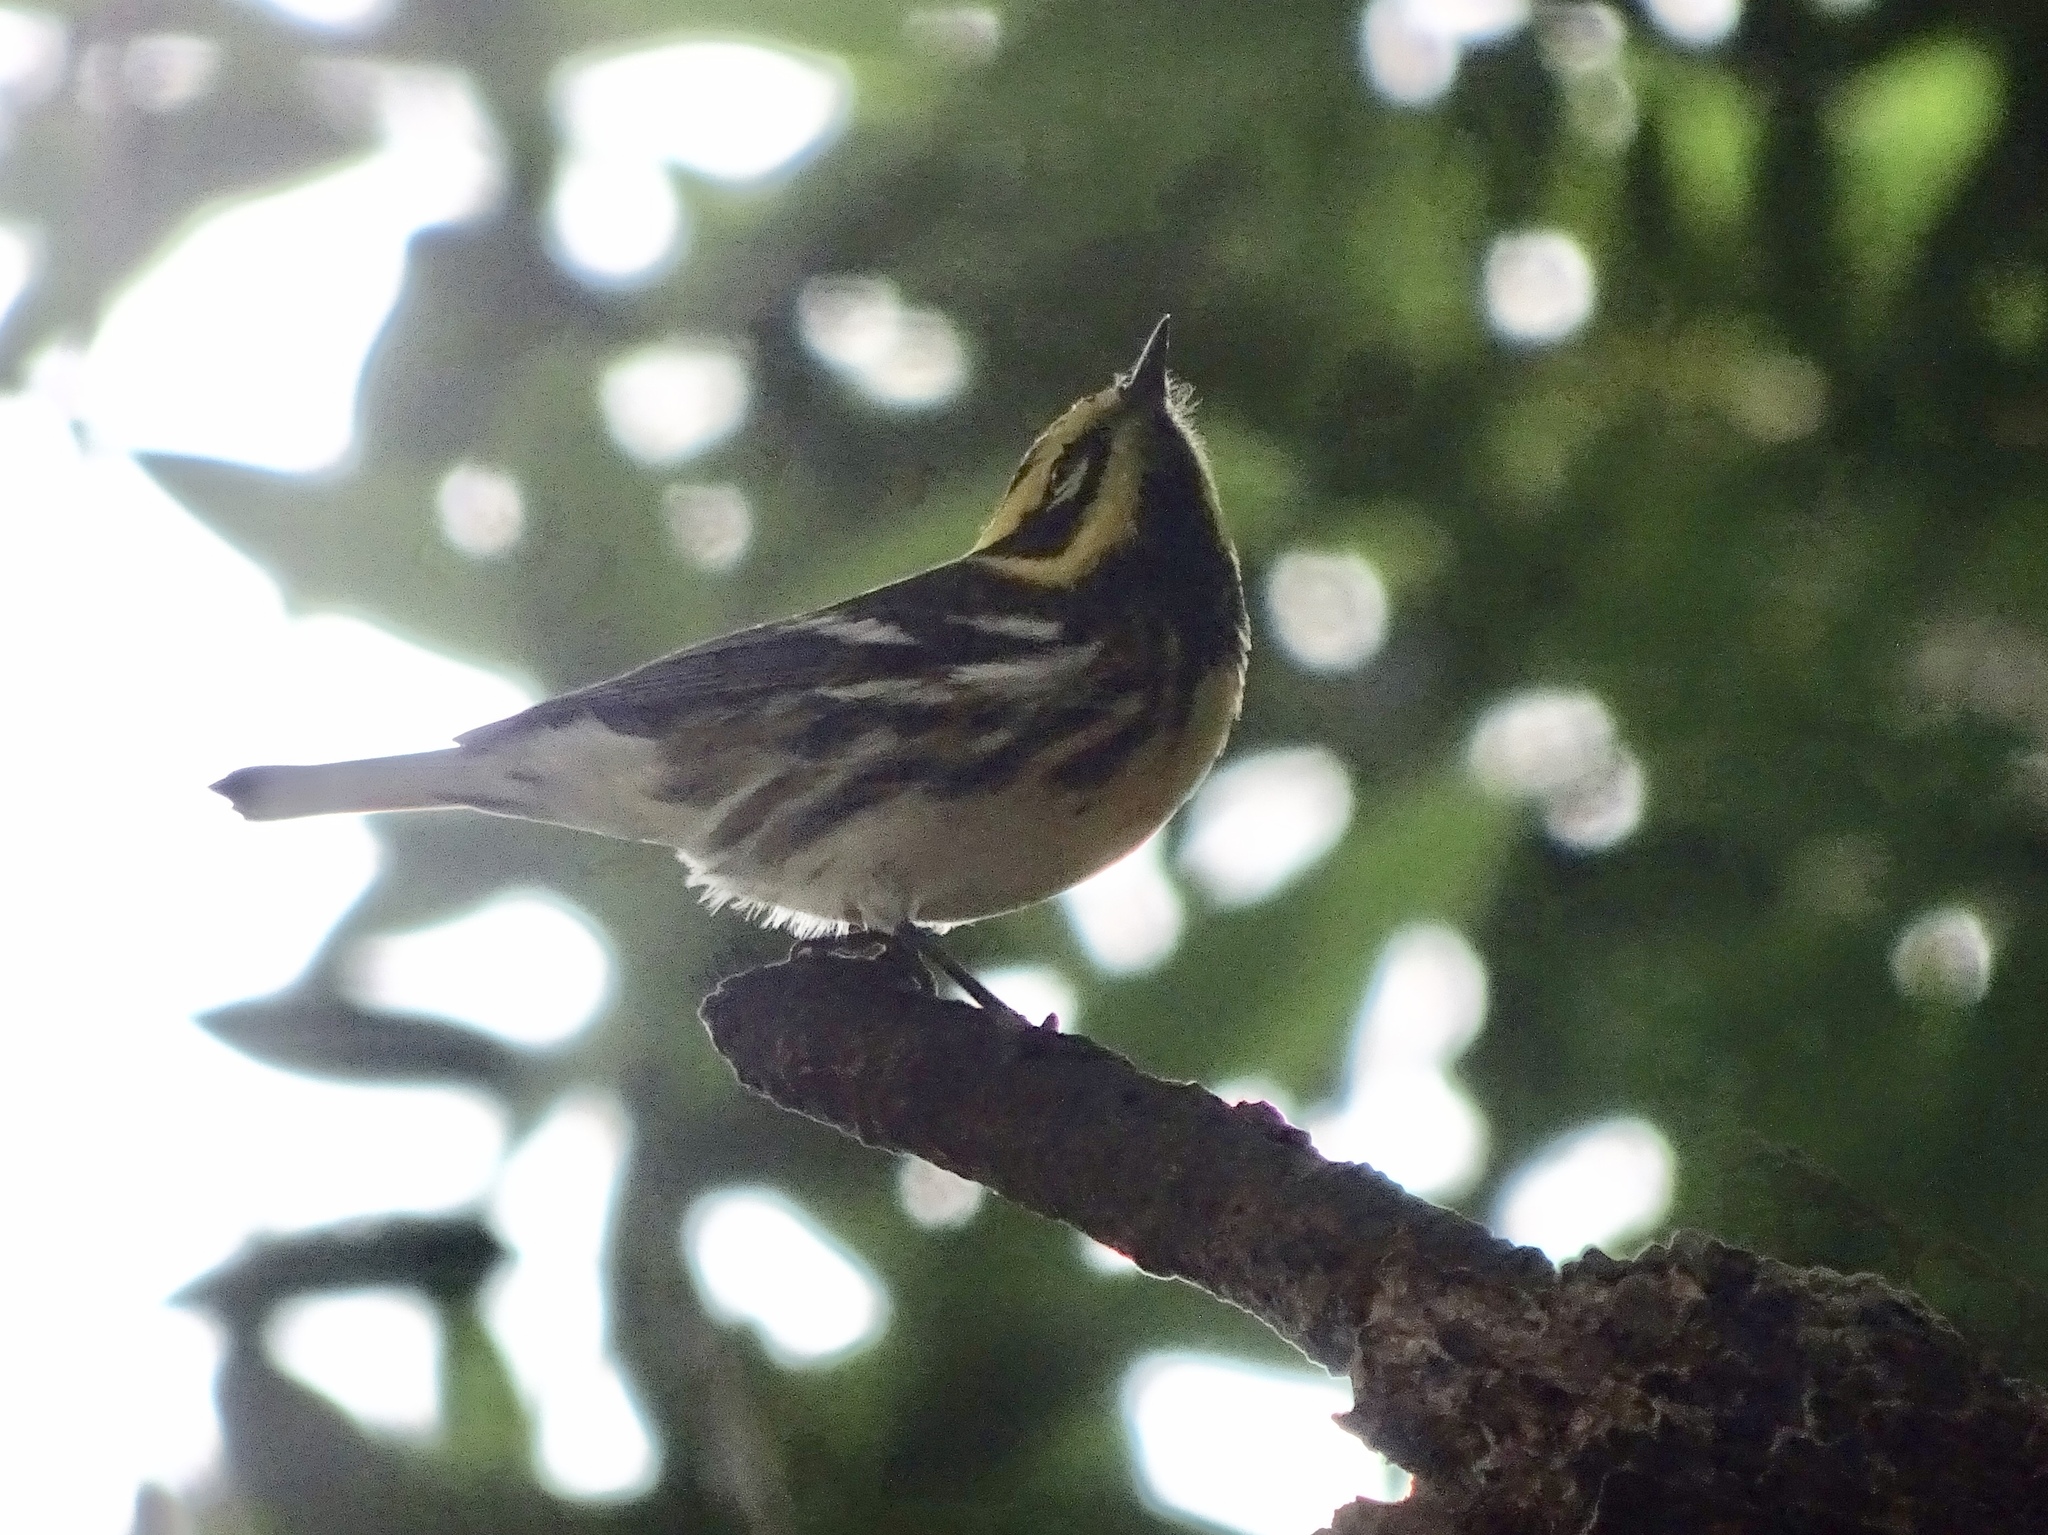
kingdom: Animalia
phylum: Chordata
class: Aves
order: Passeriformes
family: Parulidae
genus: Setophaga
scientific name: Setophaga townsendi
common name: Townsend's warbler
